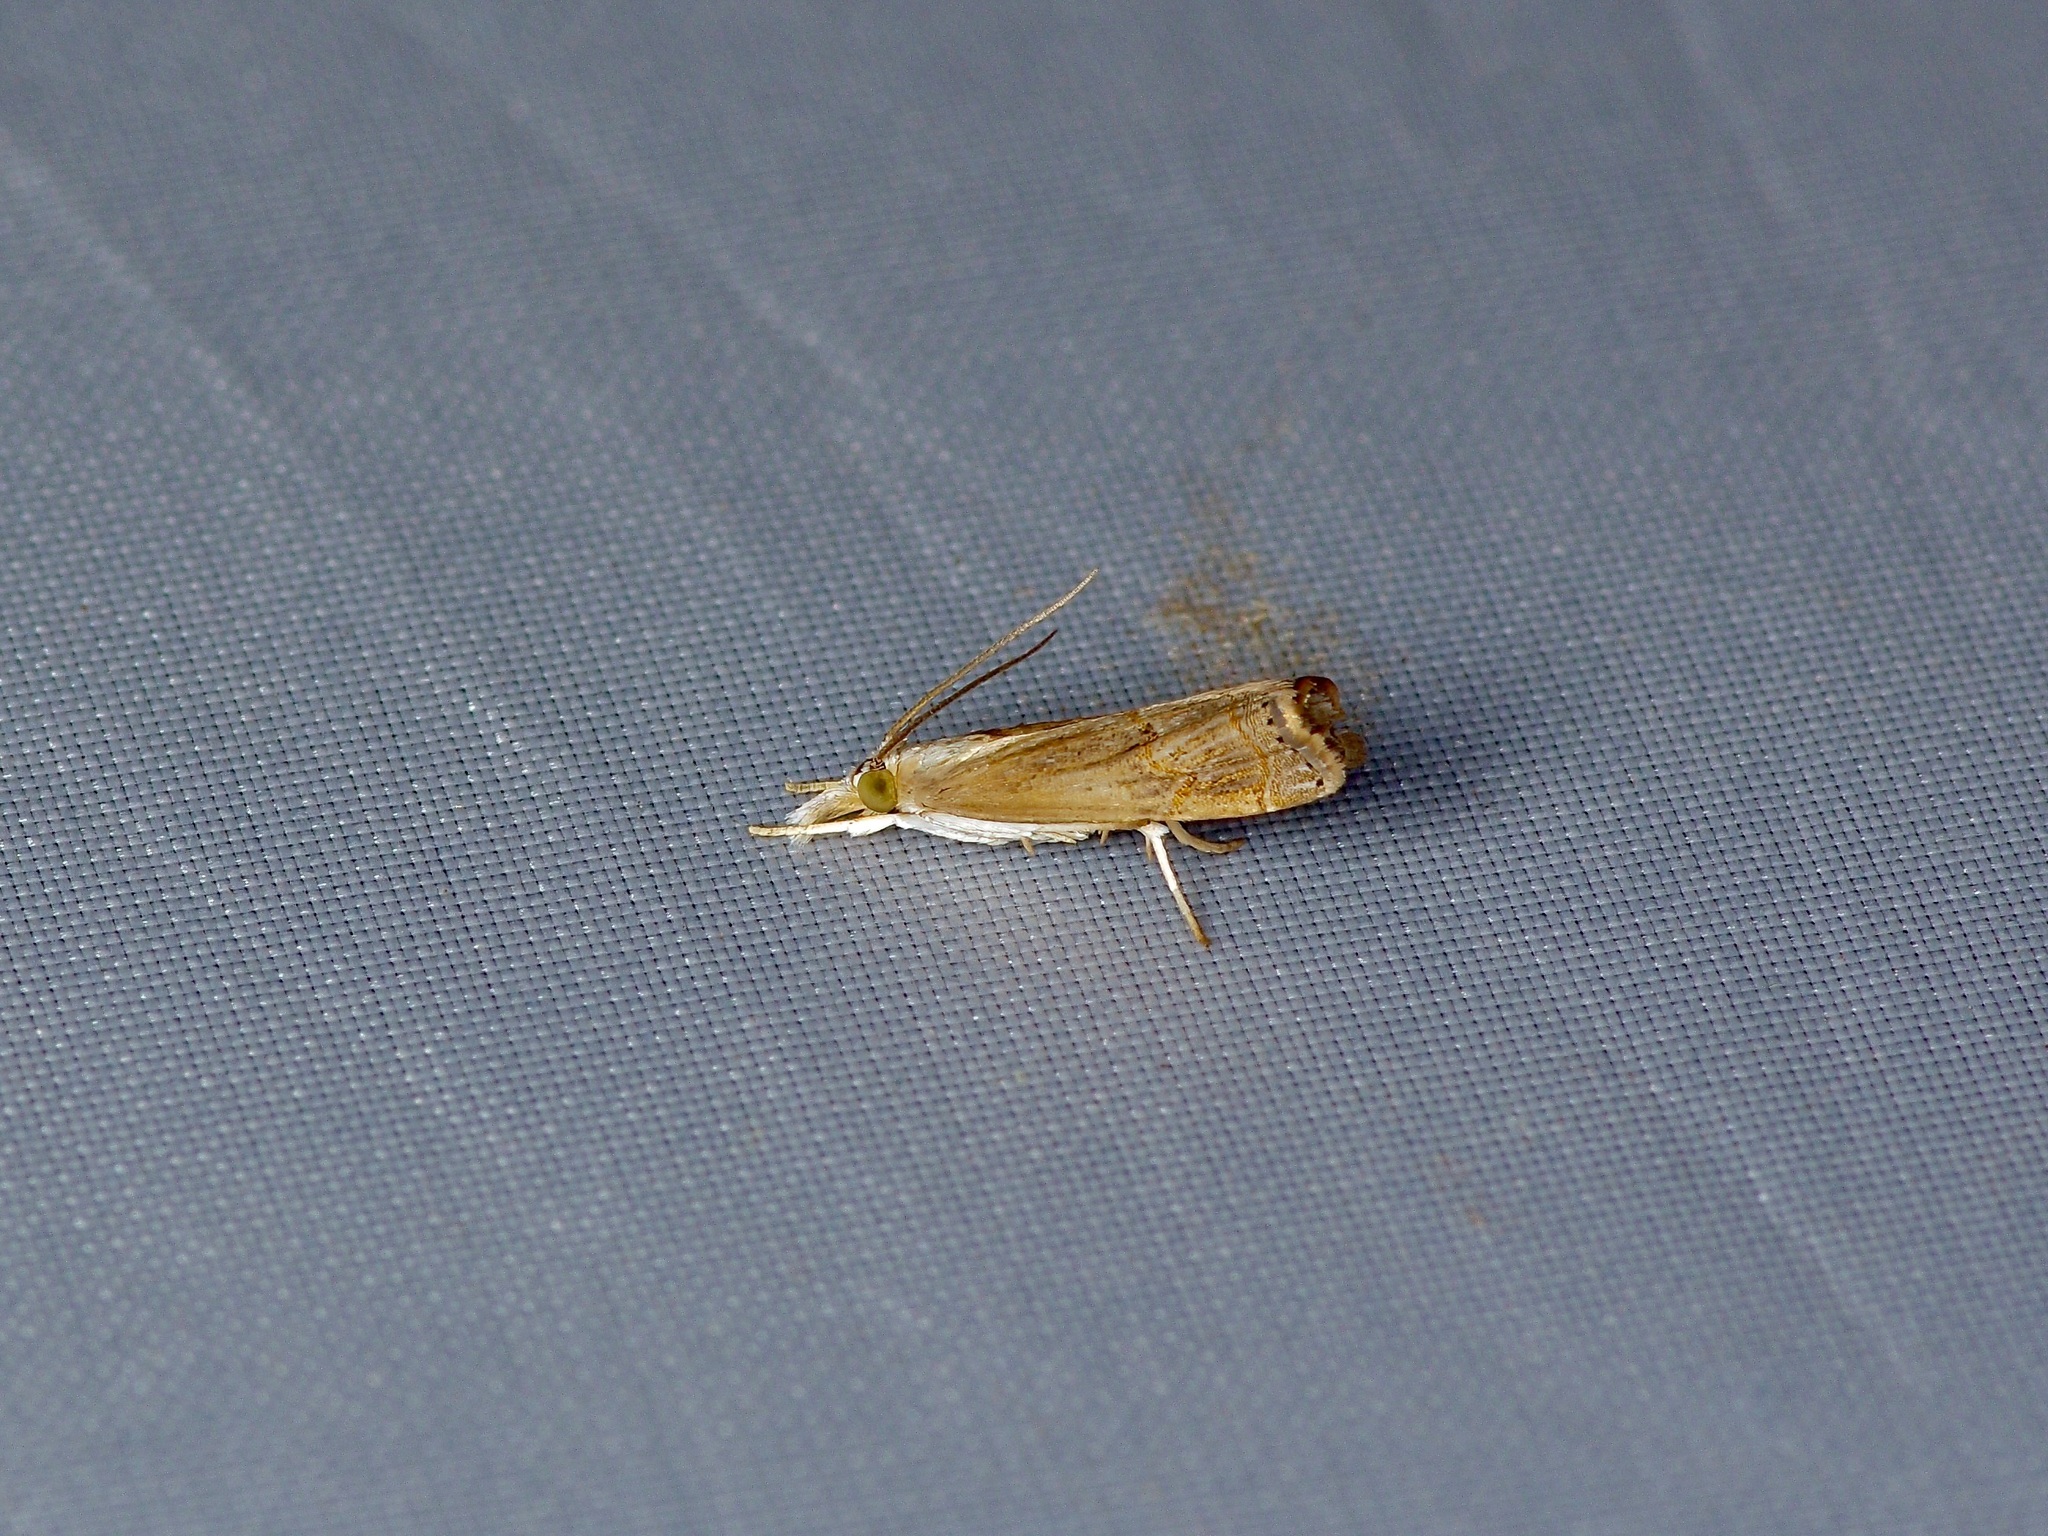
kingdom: Animalia
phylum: Arthropoda
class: Insecta
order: Lepidoptera
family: Crambidae
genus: Parapediasia
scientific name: Parapediasia teterellus
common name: Bluegrass webworm moth
